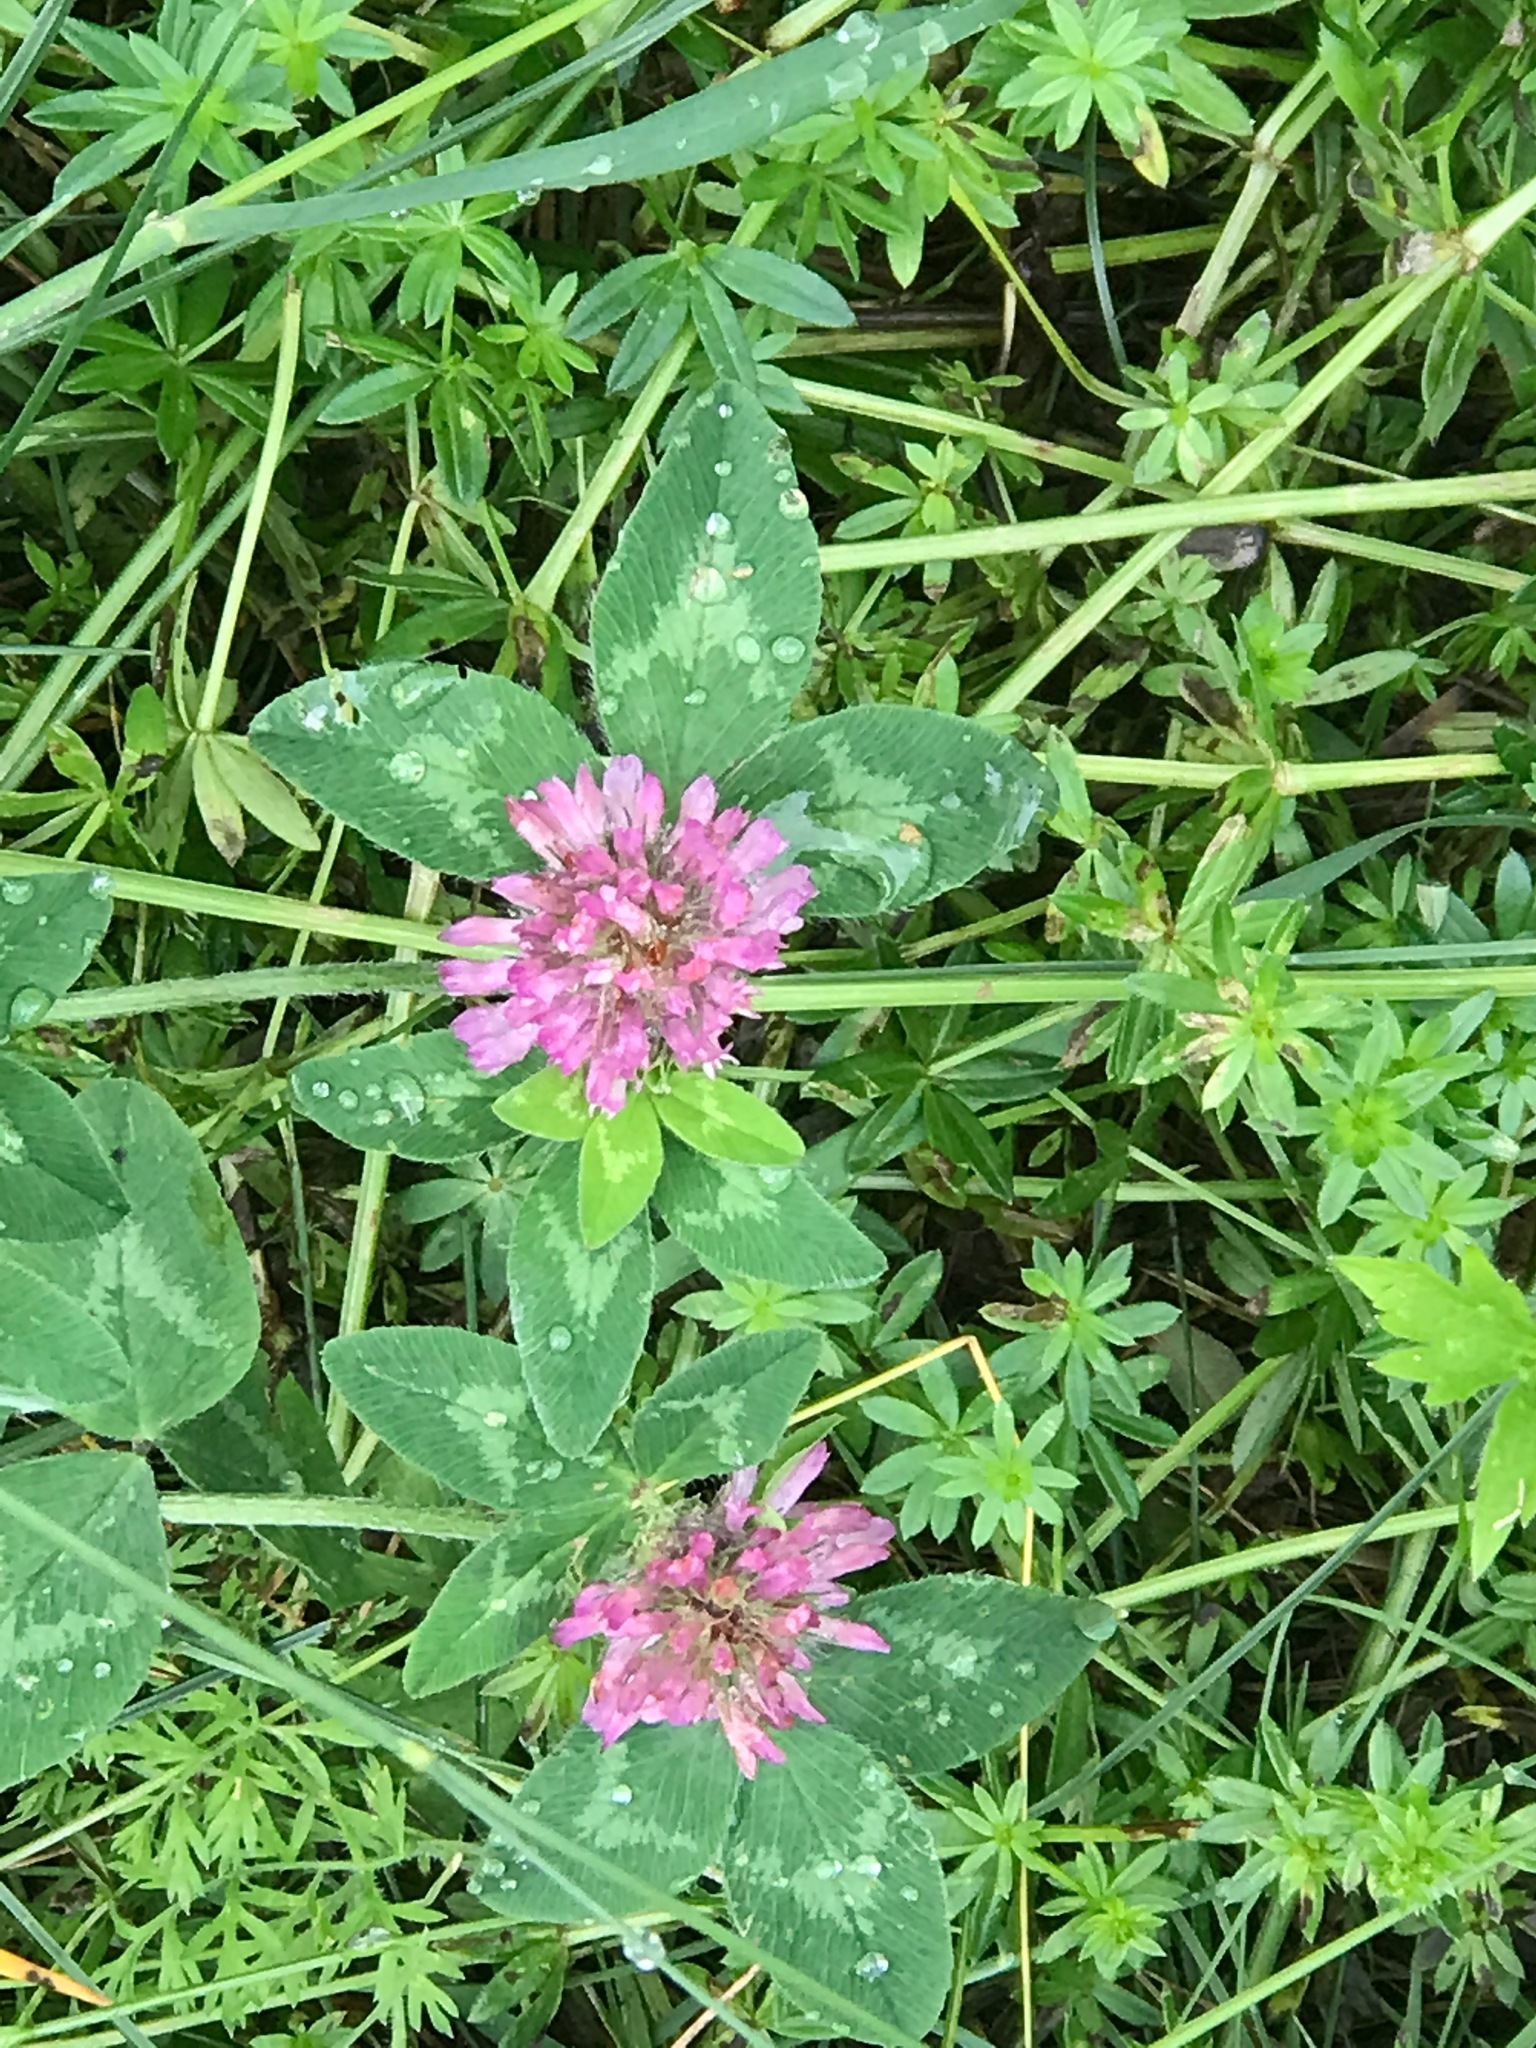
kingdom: Plantae
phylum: Tracheophyta
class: Magnoliopsida
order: Fabales
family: Fabaceae
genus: Trifolium
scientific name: Trifolium pratense
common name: Red clover
